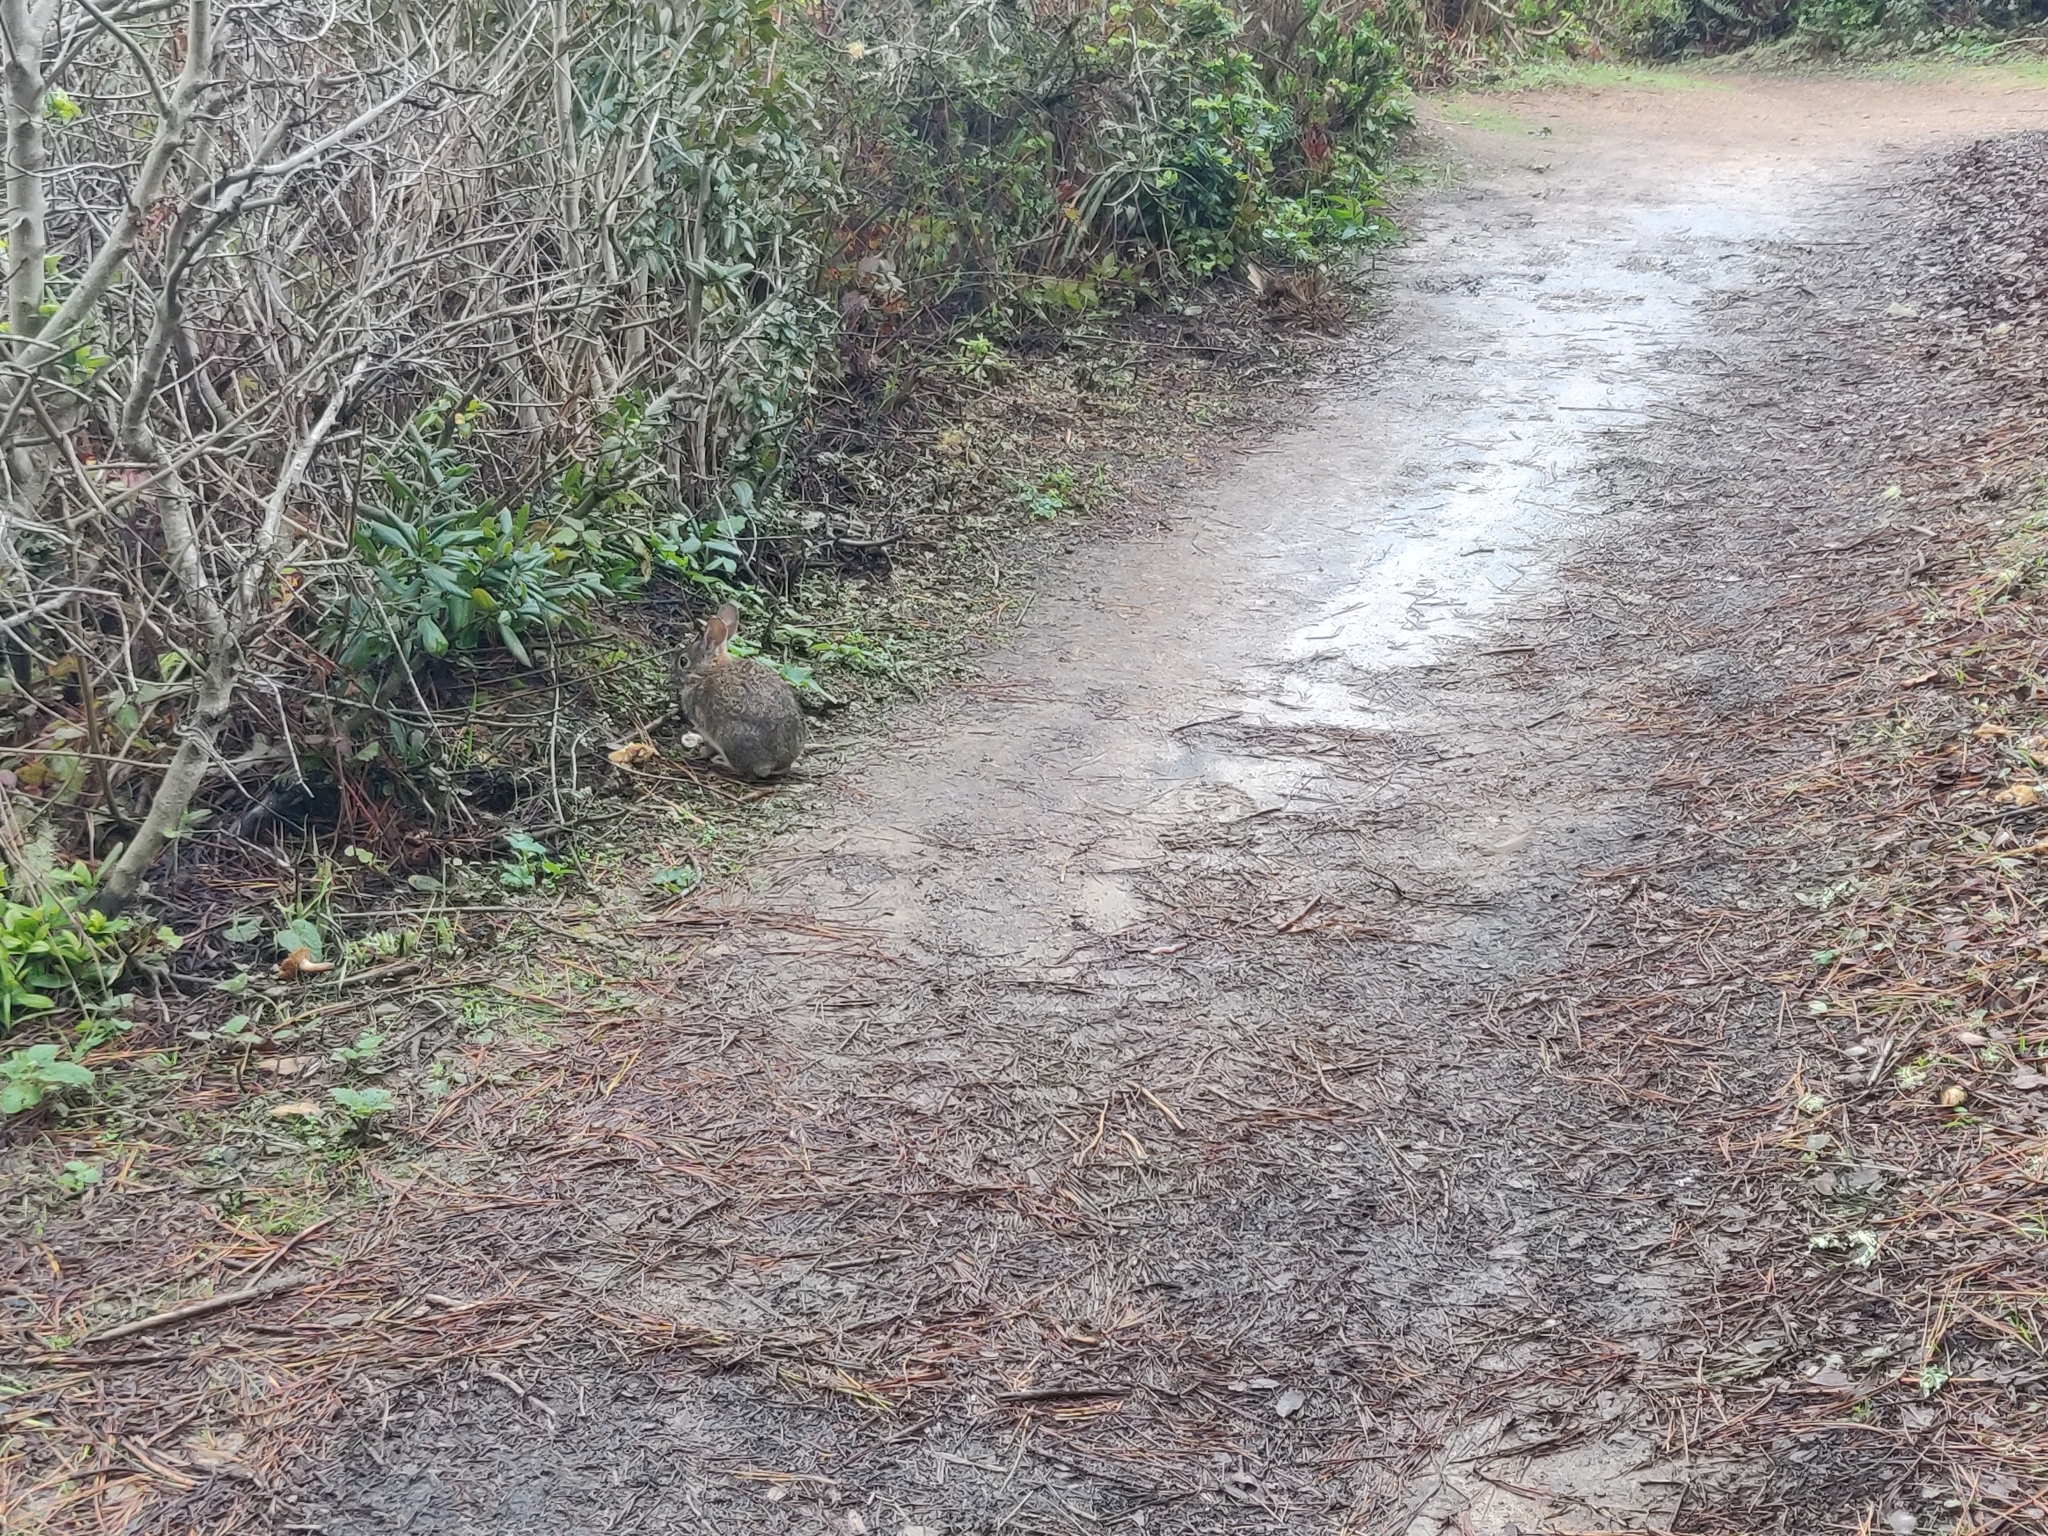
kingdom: Animalia
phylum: Chordata
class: Mammalia
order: Lagomorpha
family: Leporidae
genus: Sylvilagus
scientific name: Sylvilagus bachmani
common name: Brush rabbit
